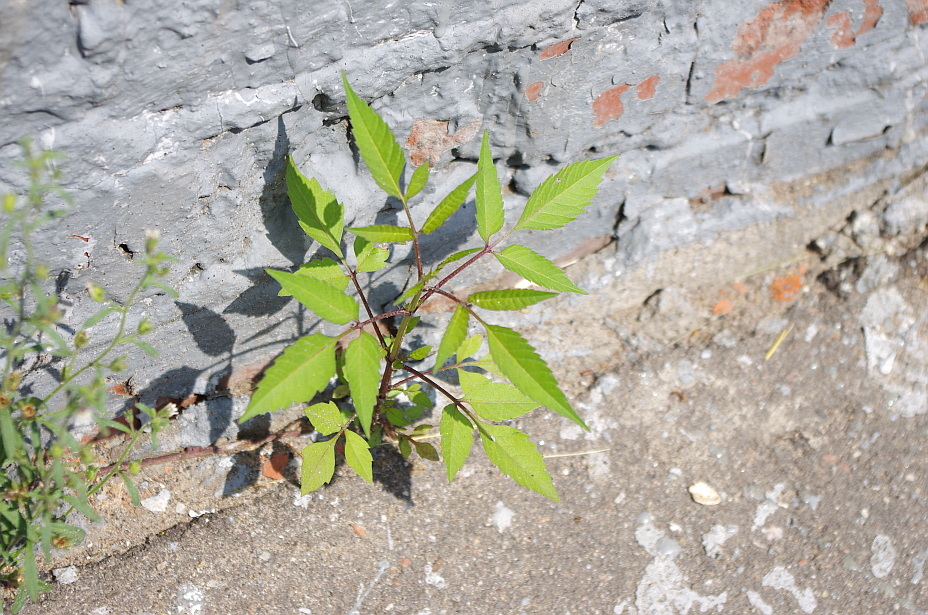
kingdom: Plantae
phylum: Tracheophyta
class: Magnoliopsida
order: Asterales
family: Asteraceae
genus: Bidens
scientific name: Bidens frondosa
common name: Beggarticks
